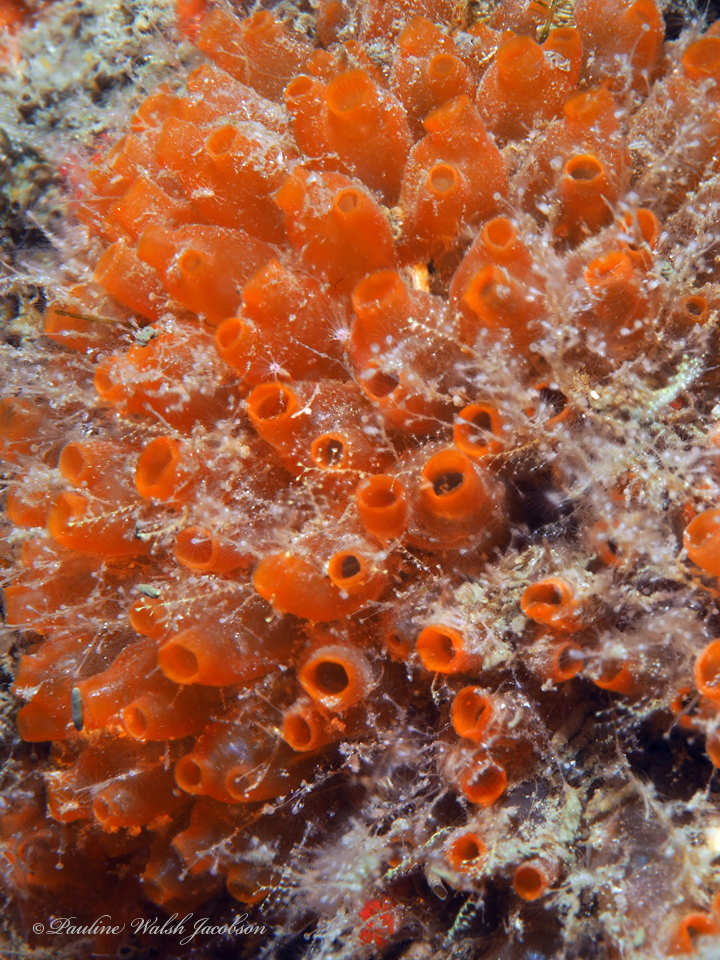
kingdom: Animalia
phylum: Chordata
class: Ascidiacea
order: Phlebobranchia
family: Perophoridae
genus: Ecteinascidia
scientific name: Ecteinascidia turbinata
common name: Mangrove tunicate
